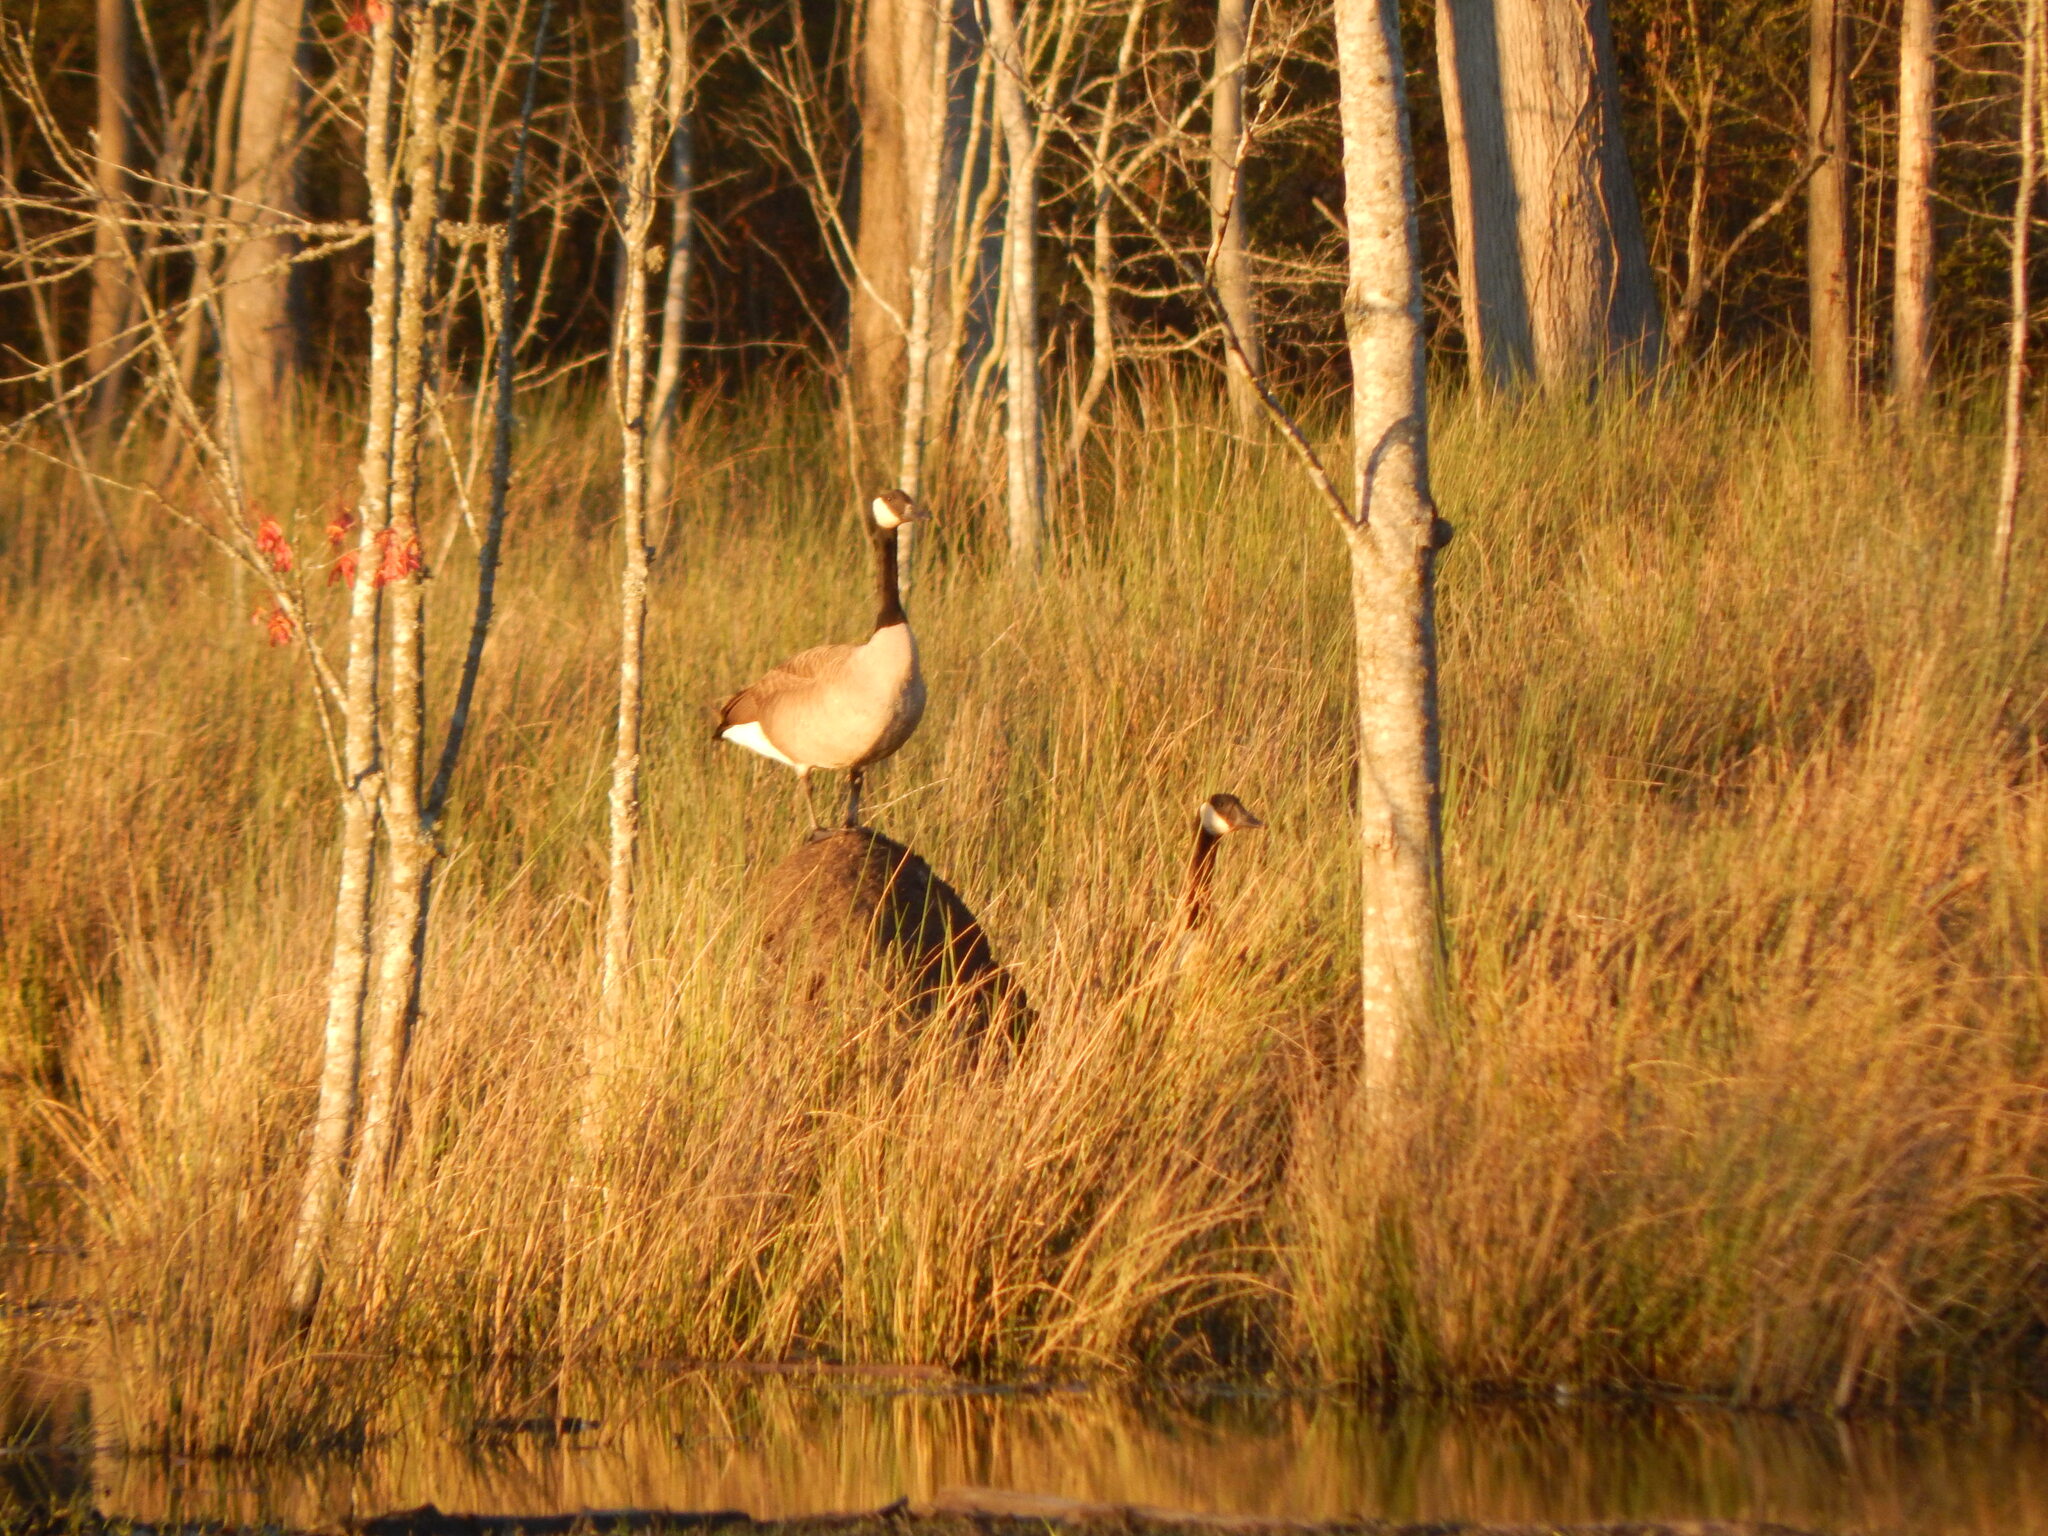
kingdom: Animalia
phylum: Chordata
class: Aves
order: Anseriformes
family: Anatidae
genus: Branta
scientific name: Branta canadensis
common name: Canada goose
